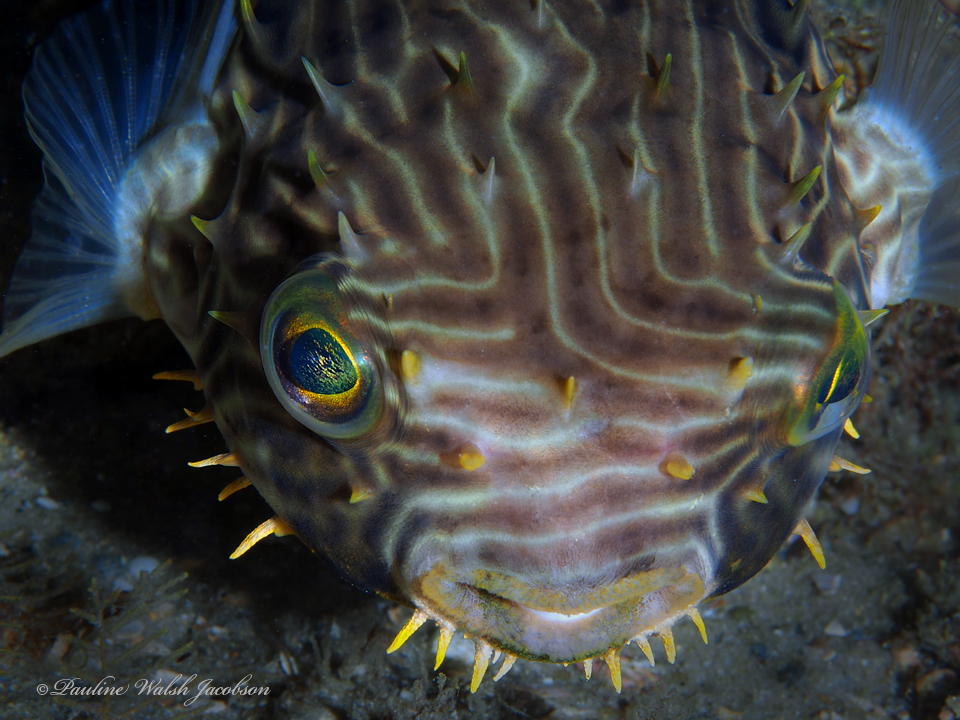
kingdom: Animalia
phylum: Chordata
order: Tetraodontiformes
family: Diodontidae
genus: Chilomycterus
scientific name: Chilomycterus schoepfii
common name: Striped burrfish
